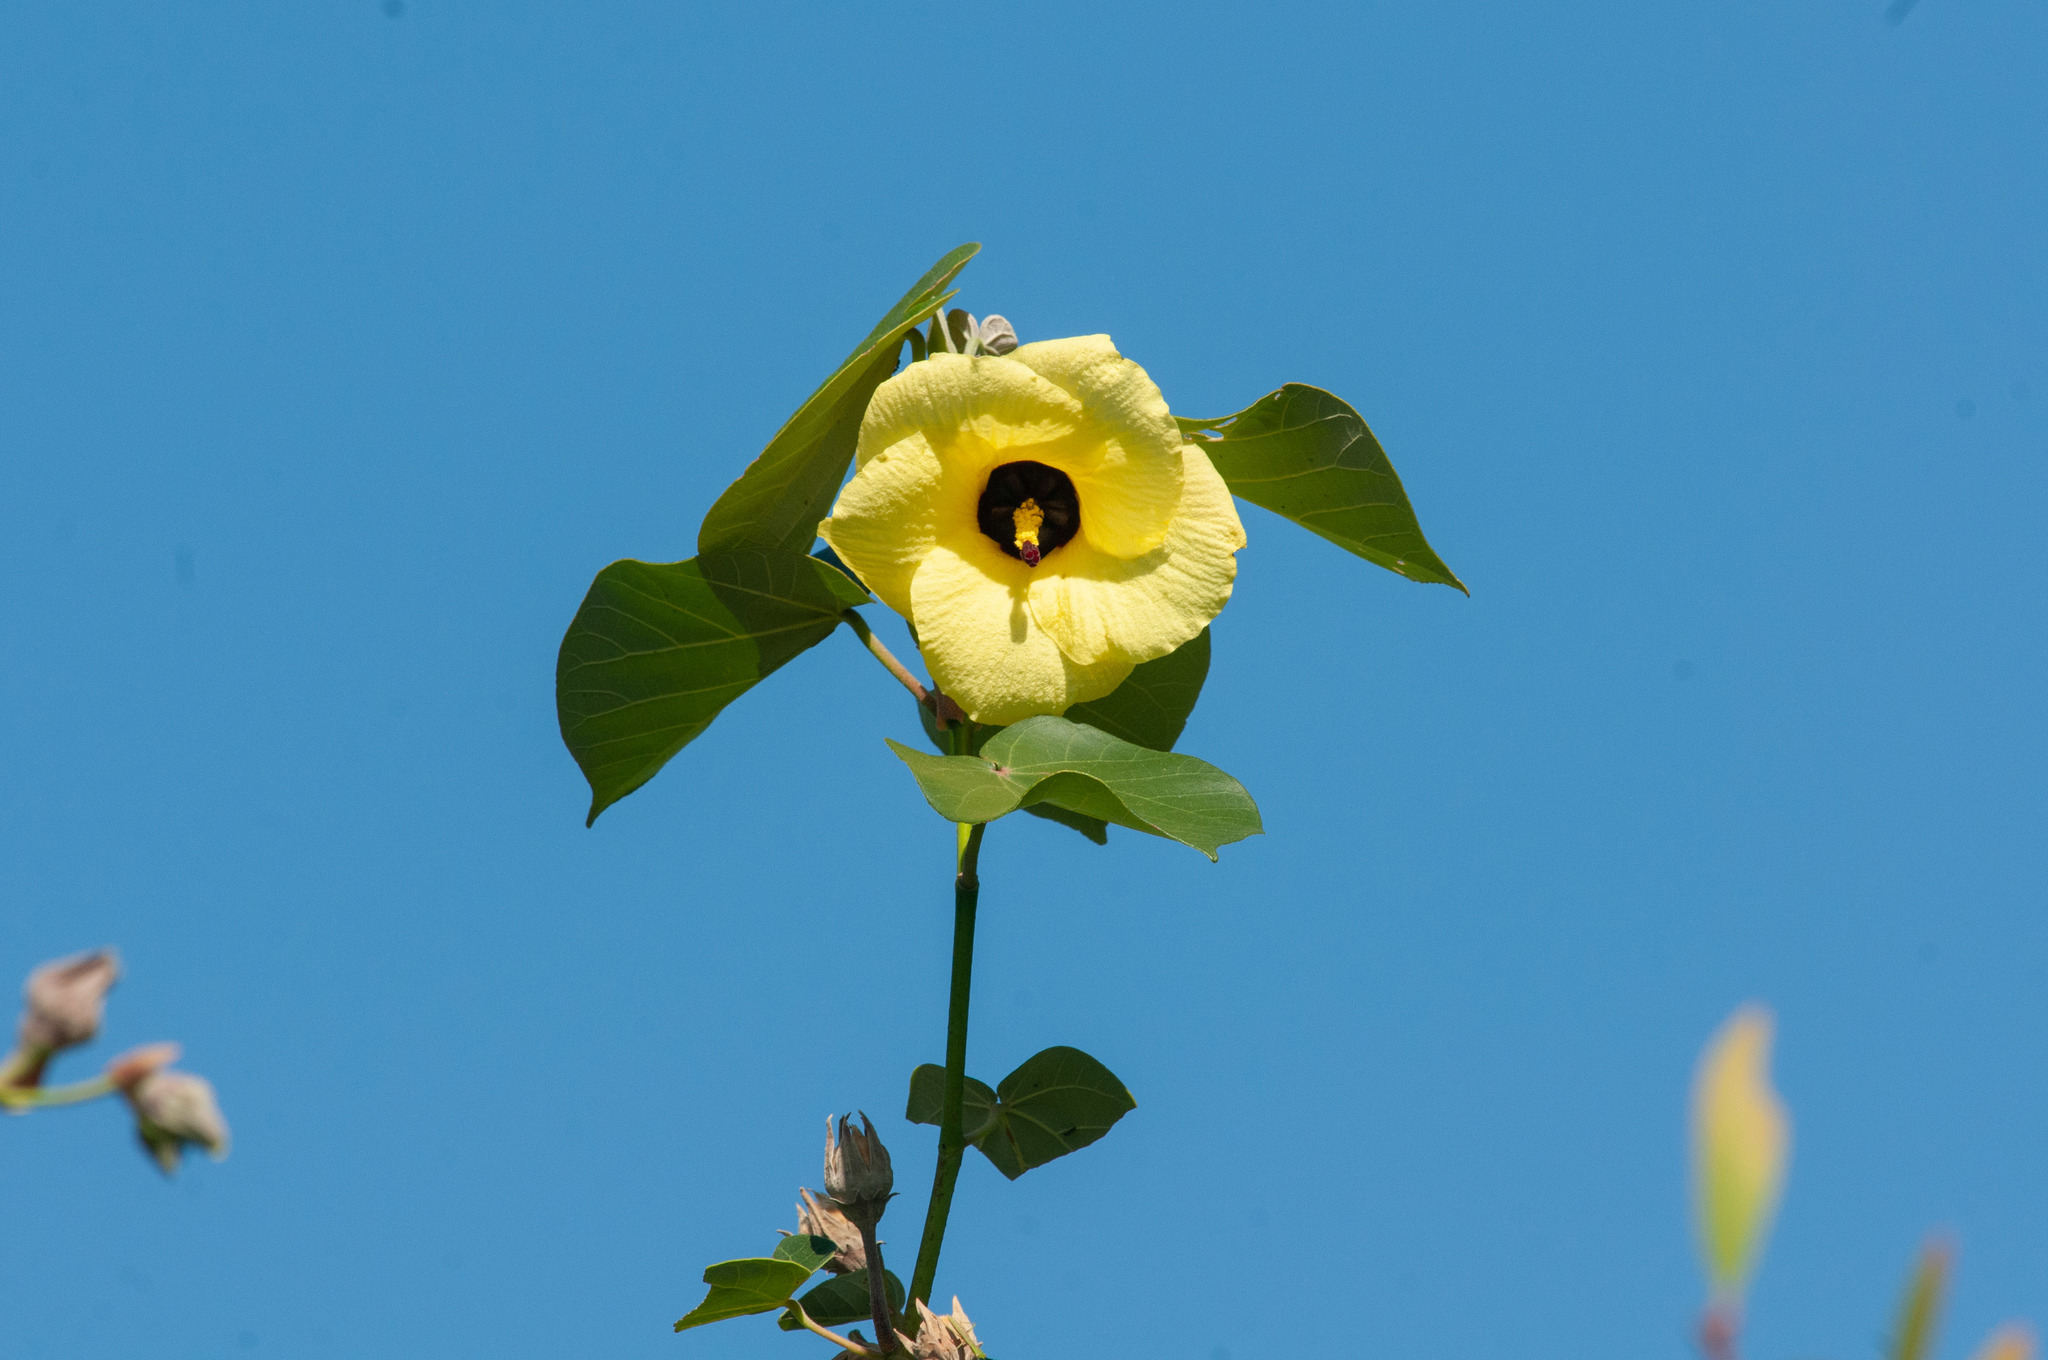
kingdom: Plantae
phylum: Tracheophyta
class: Magnoliopsida
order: Malvales
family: Malvaceae
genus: Talipariti
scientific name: Talipariti tiliaceum
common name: Sea hibiscus
